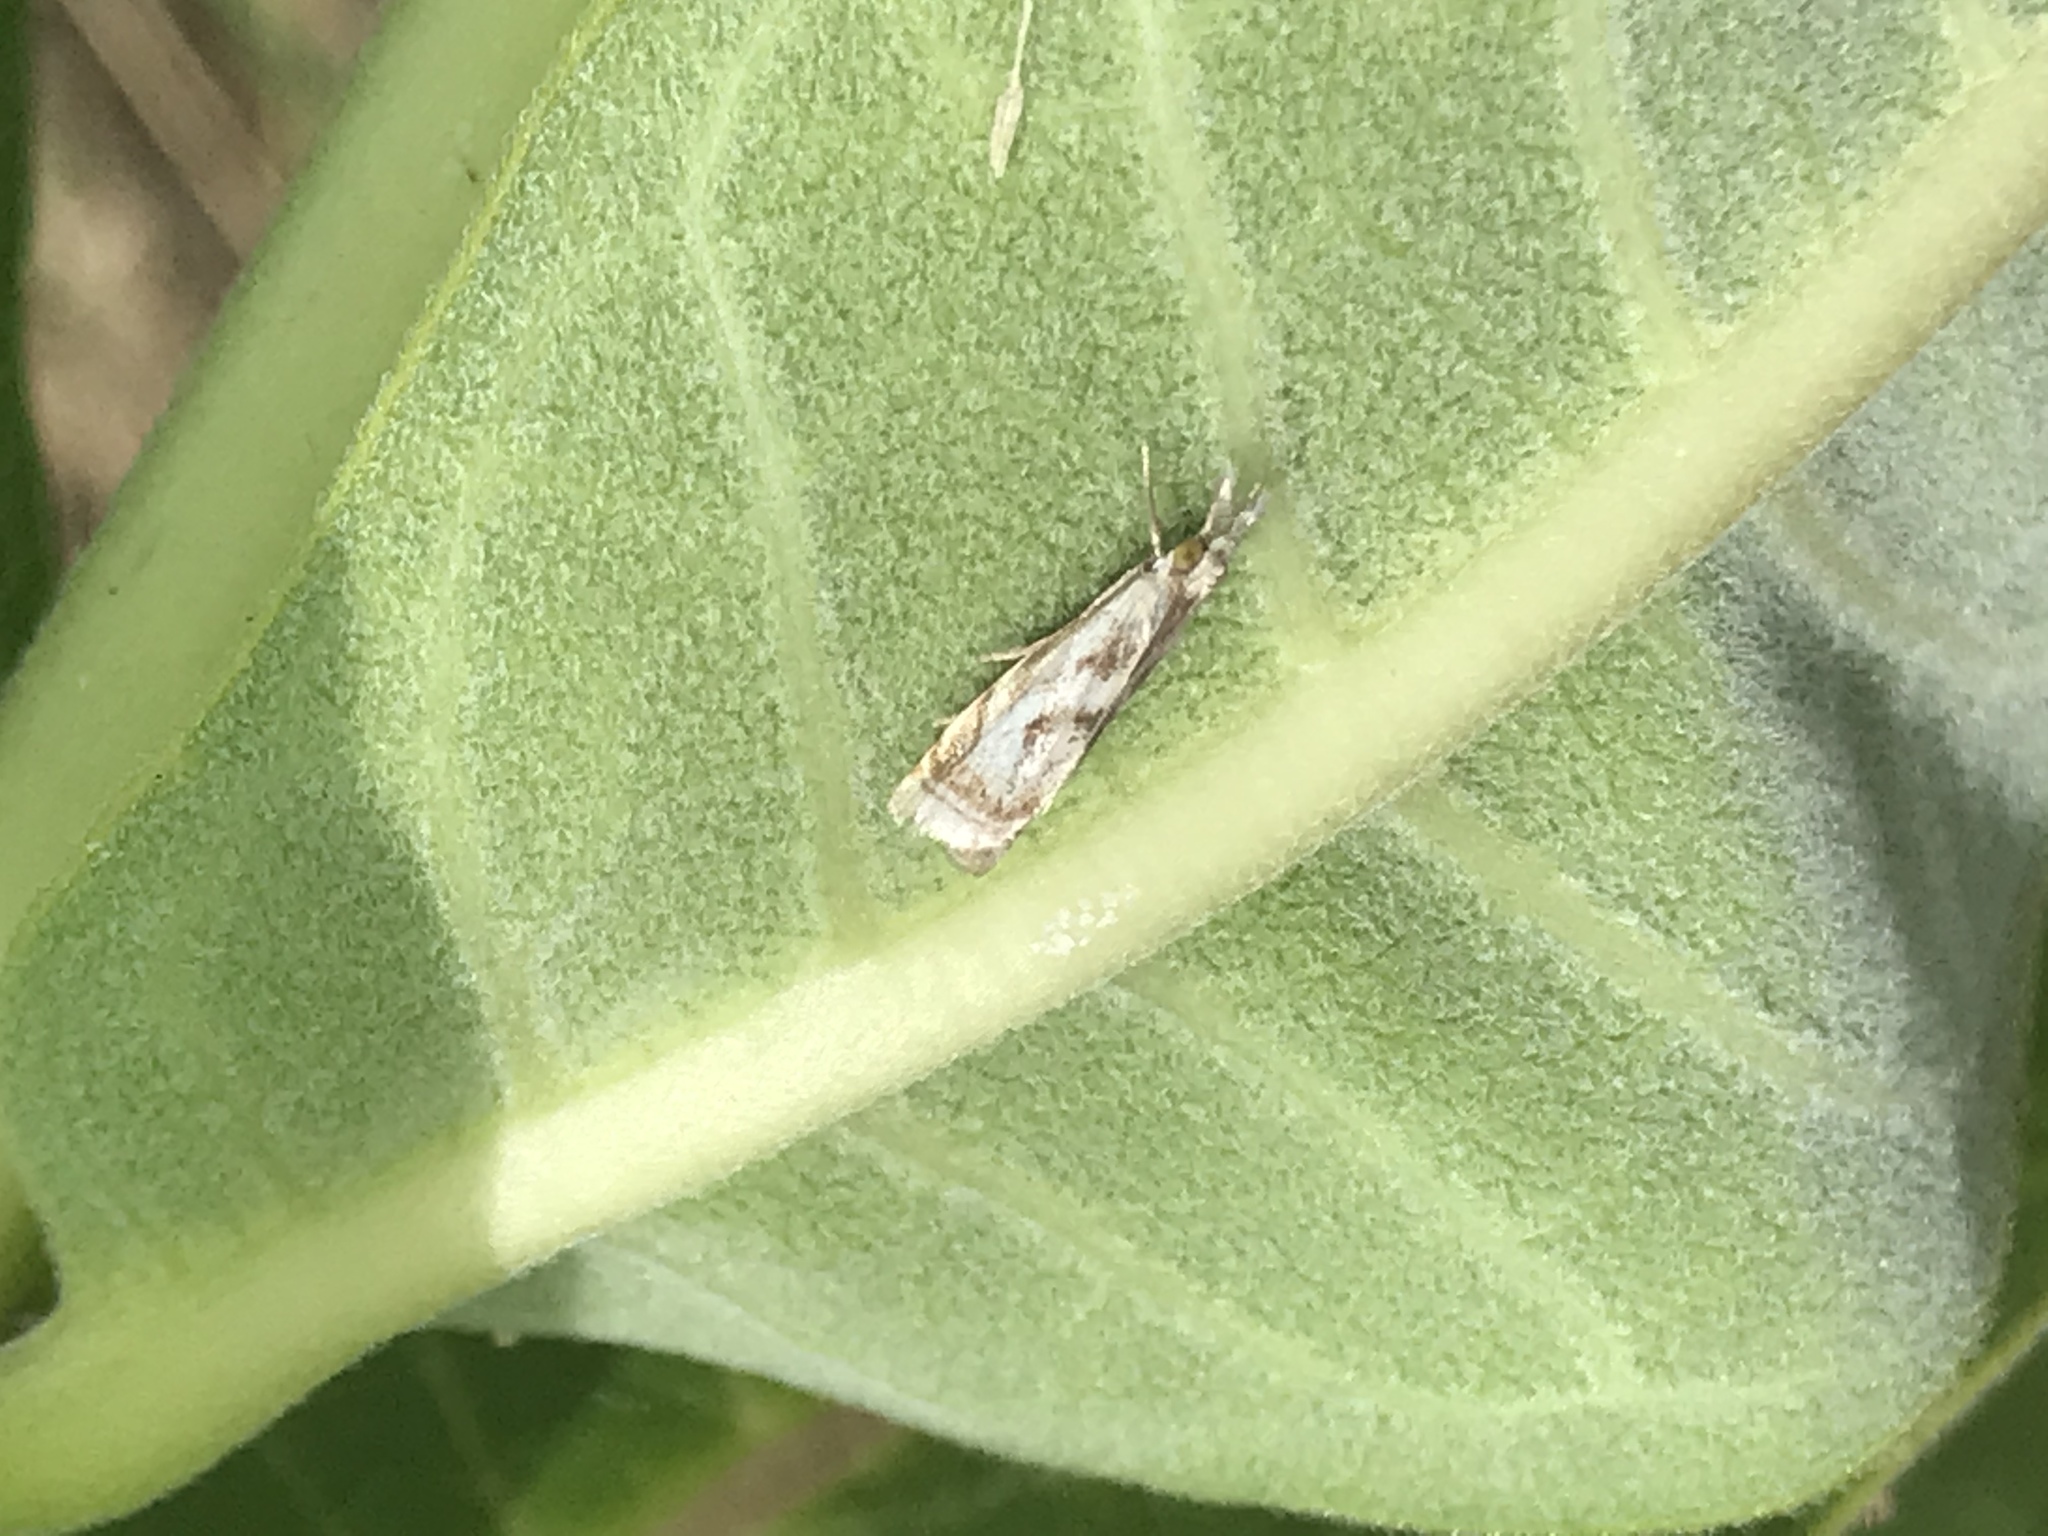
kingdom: Animalia
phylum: Arthropoda
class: Insecta
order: Lepidoptera
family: Crambidae
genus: Microcrambus
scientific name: Microcrambus elegans
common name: Elegant grass-veneer
